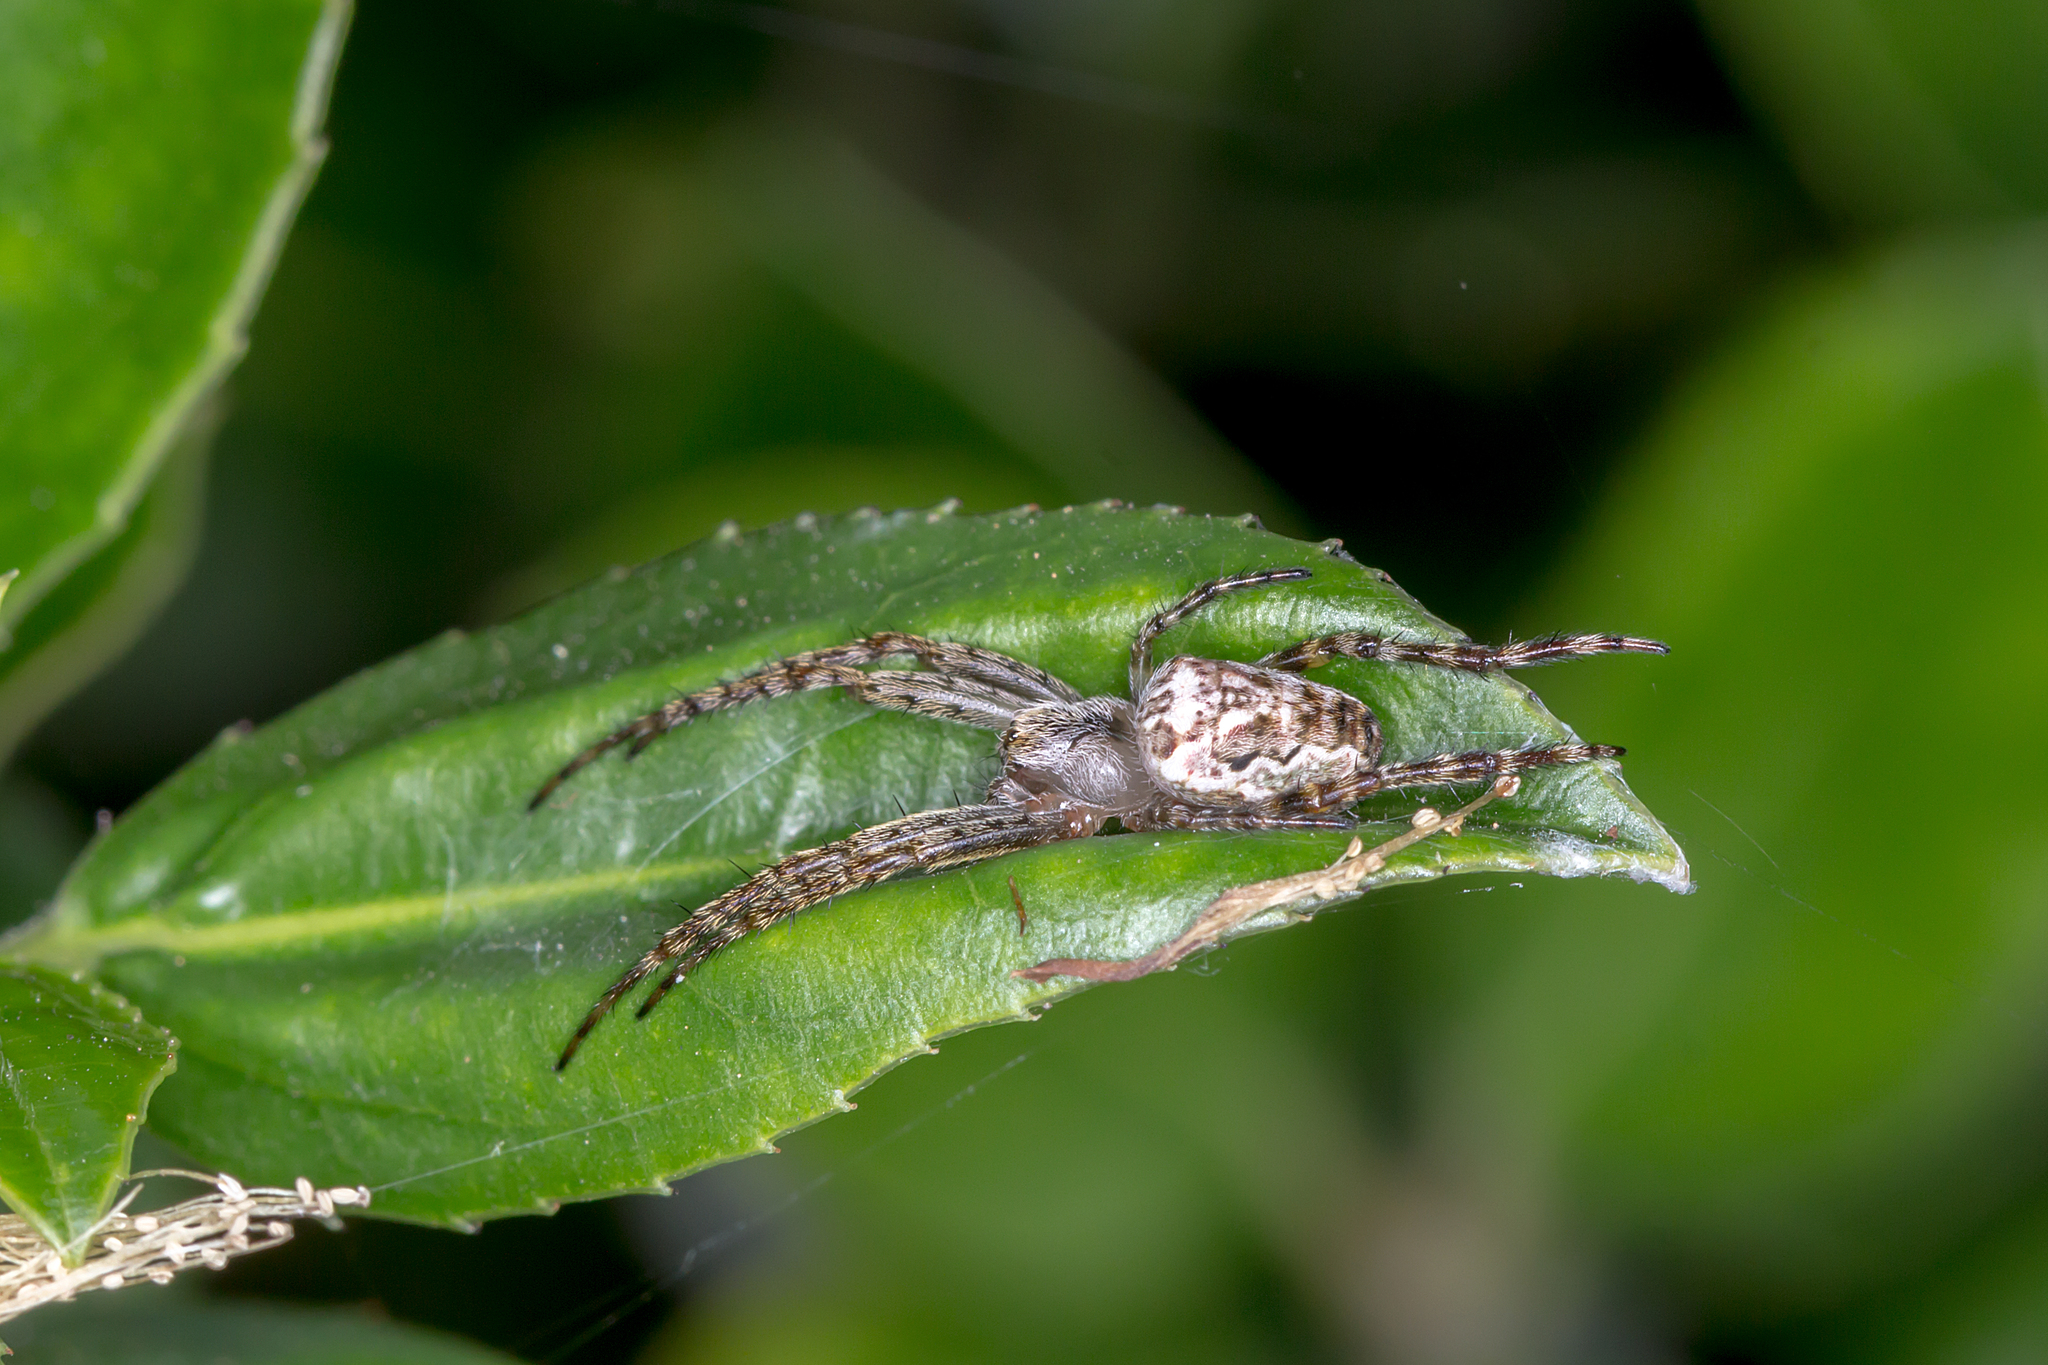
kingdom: Animalia
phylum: Arthropoda
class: Arachnida
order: Araneae
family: Araneidae
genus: Plebs
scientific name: Plebs eburnus
